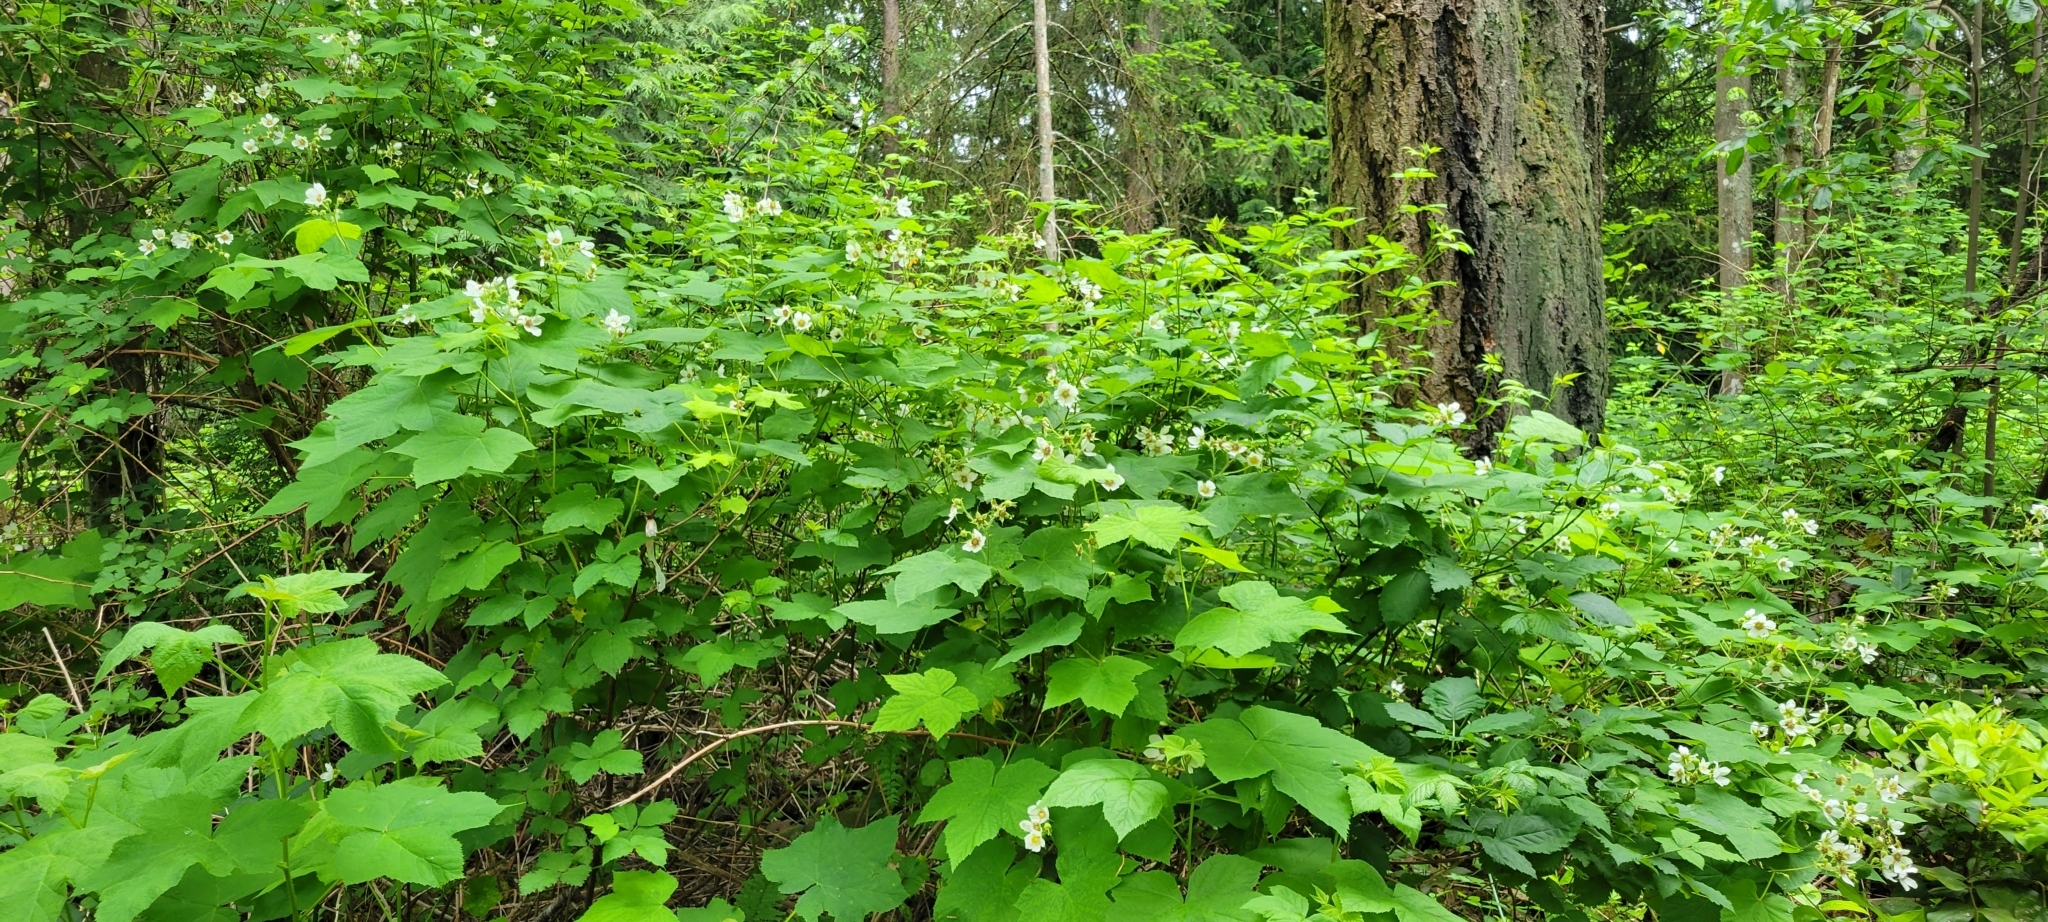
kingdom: Plantae
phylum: Tracheophyta
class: Magnoliopsida
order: Rosales
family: Rosaceae
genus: Rubus
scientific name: Rubus parviflorus
